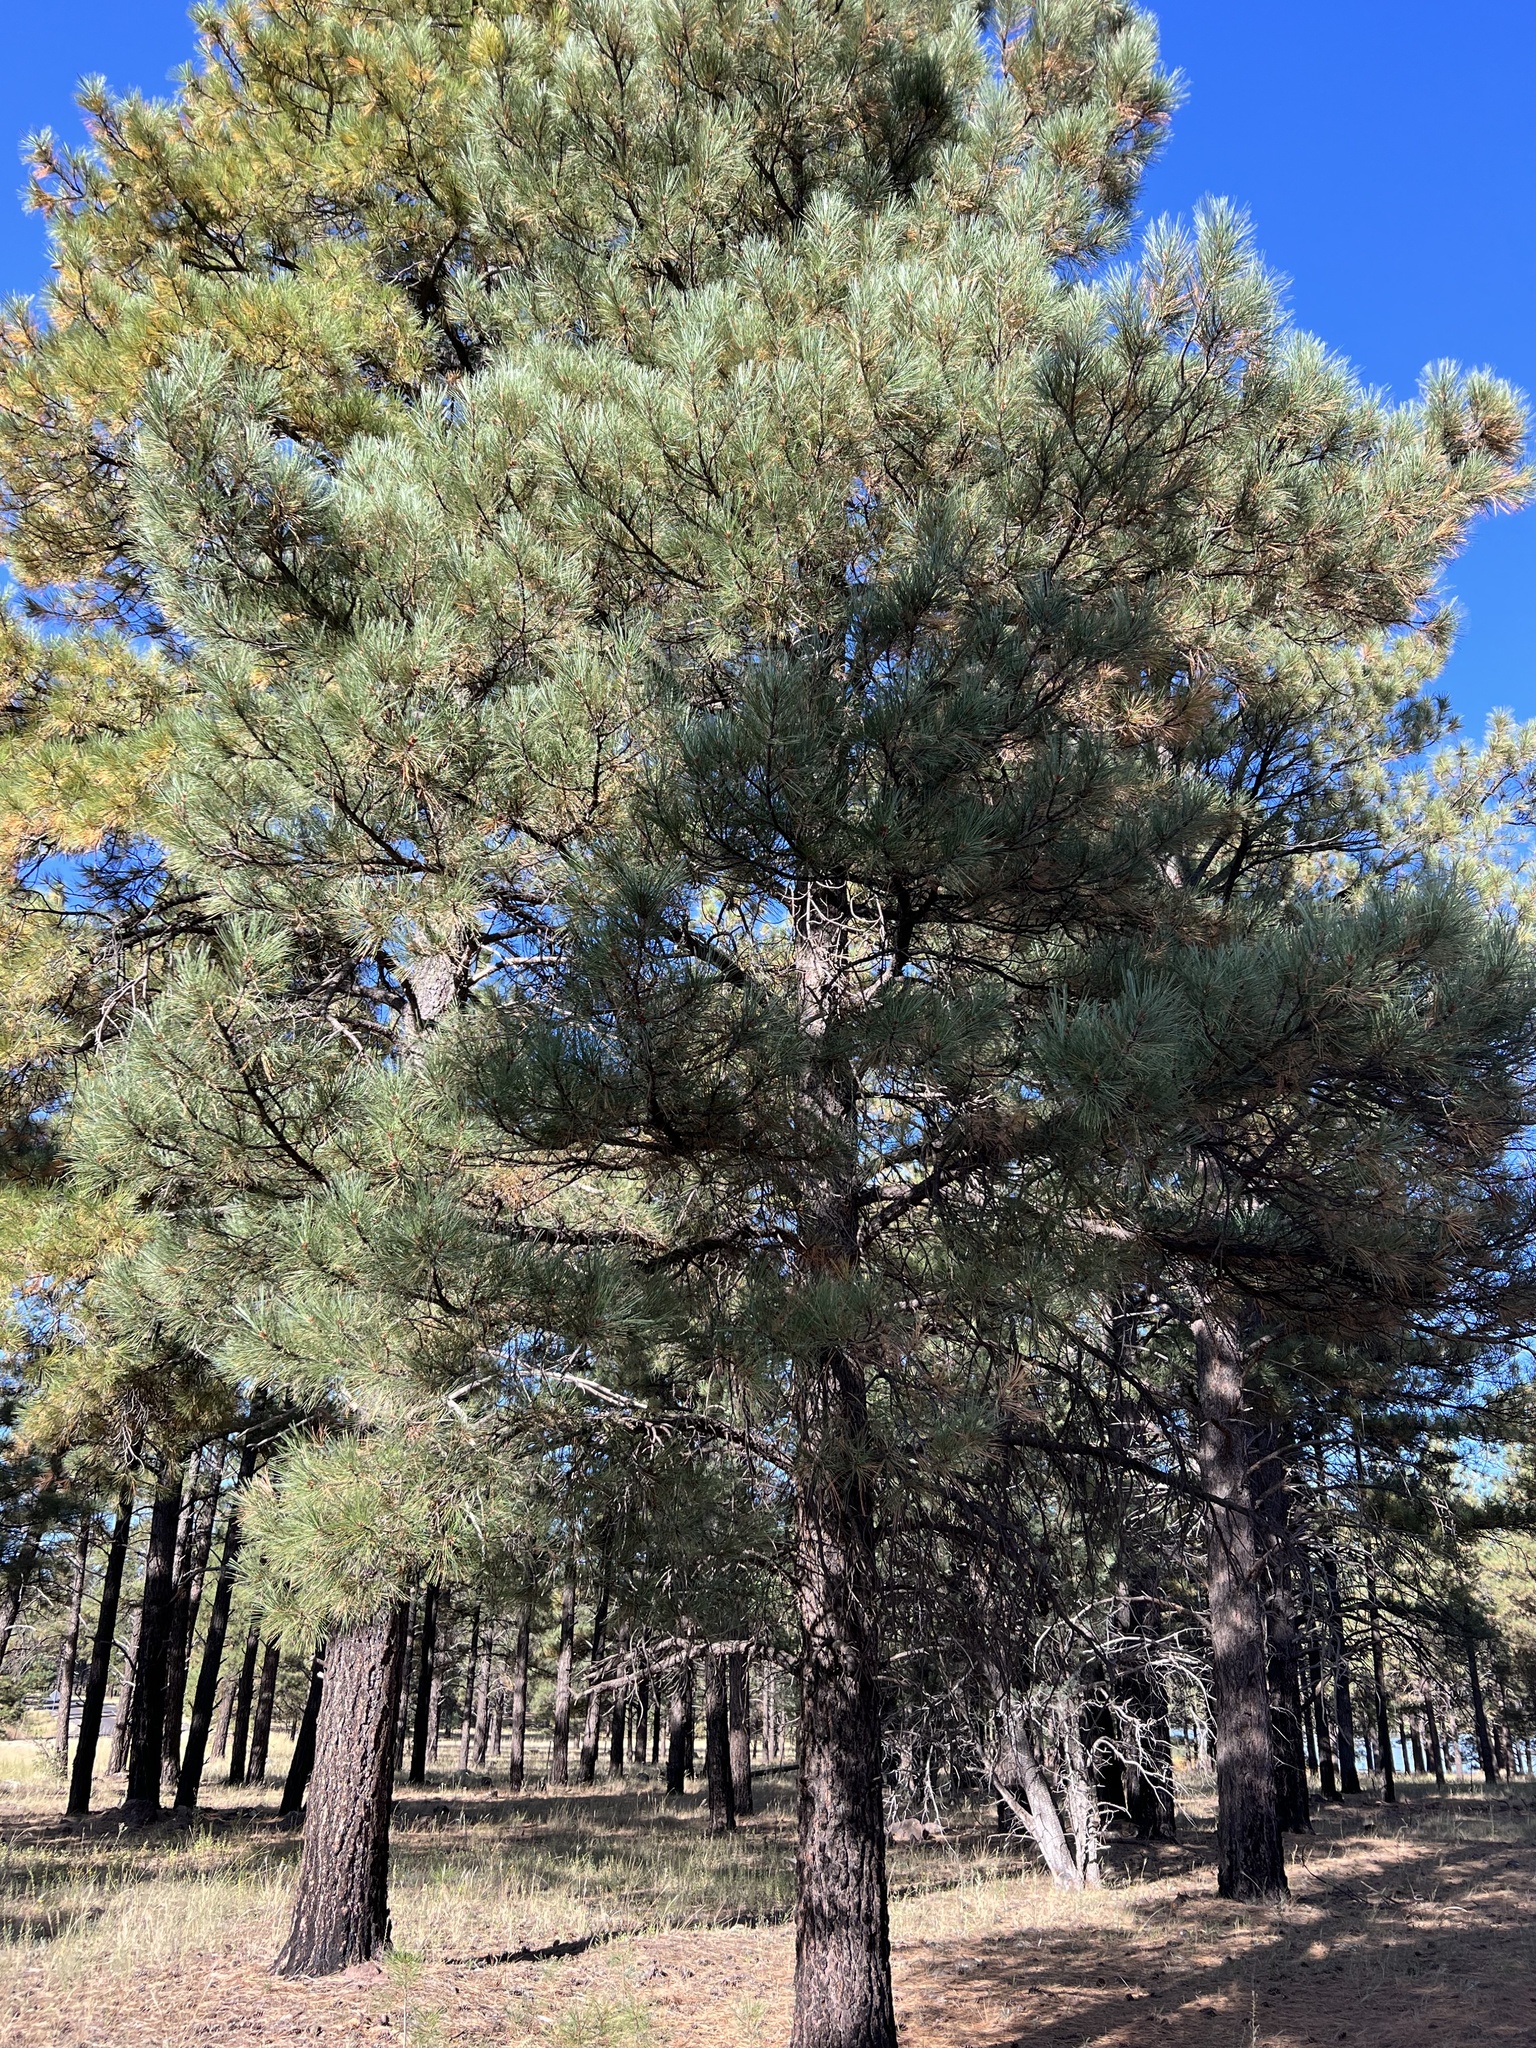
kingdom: Plantae
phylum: Tracheophyta
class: Pinopsida
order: Pinales
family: Pinaceae
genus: Pinus
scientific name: Pinus ponderosa
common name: Western yellow-pine
